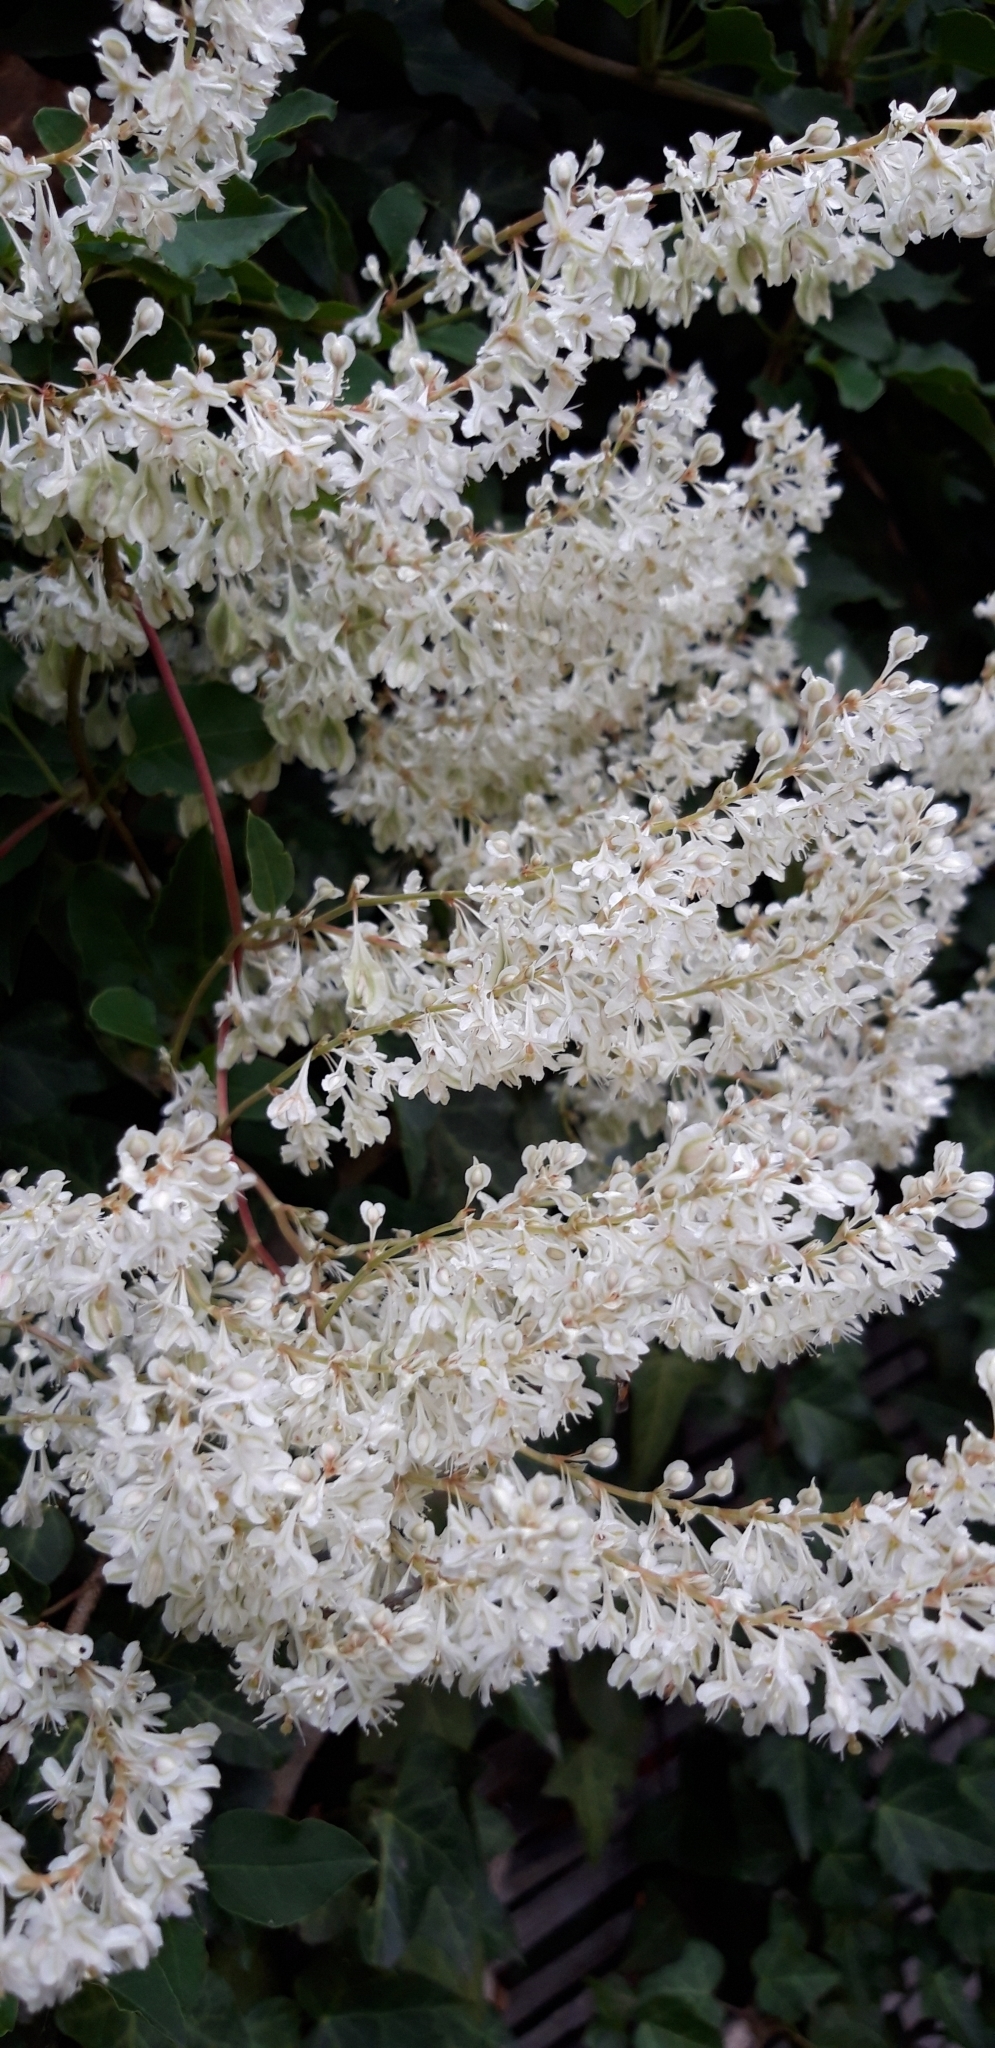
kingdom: Plantae
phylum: Tracheophyta
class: Magnoliopsida
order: Caryophyllales
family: Polygonaceae
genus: Fallopia
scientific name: Fallopia baldschuanica
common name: Russian-vine
